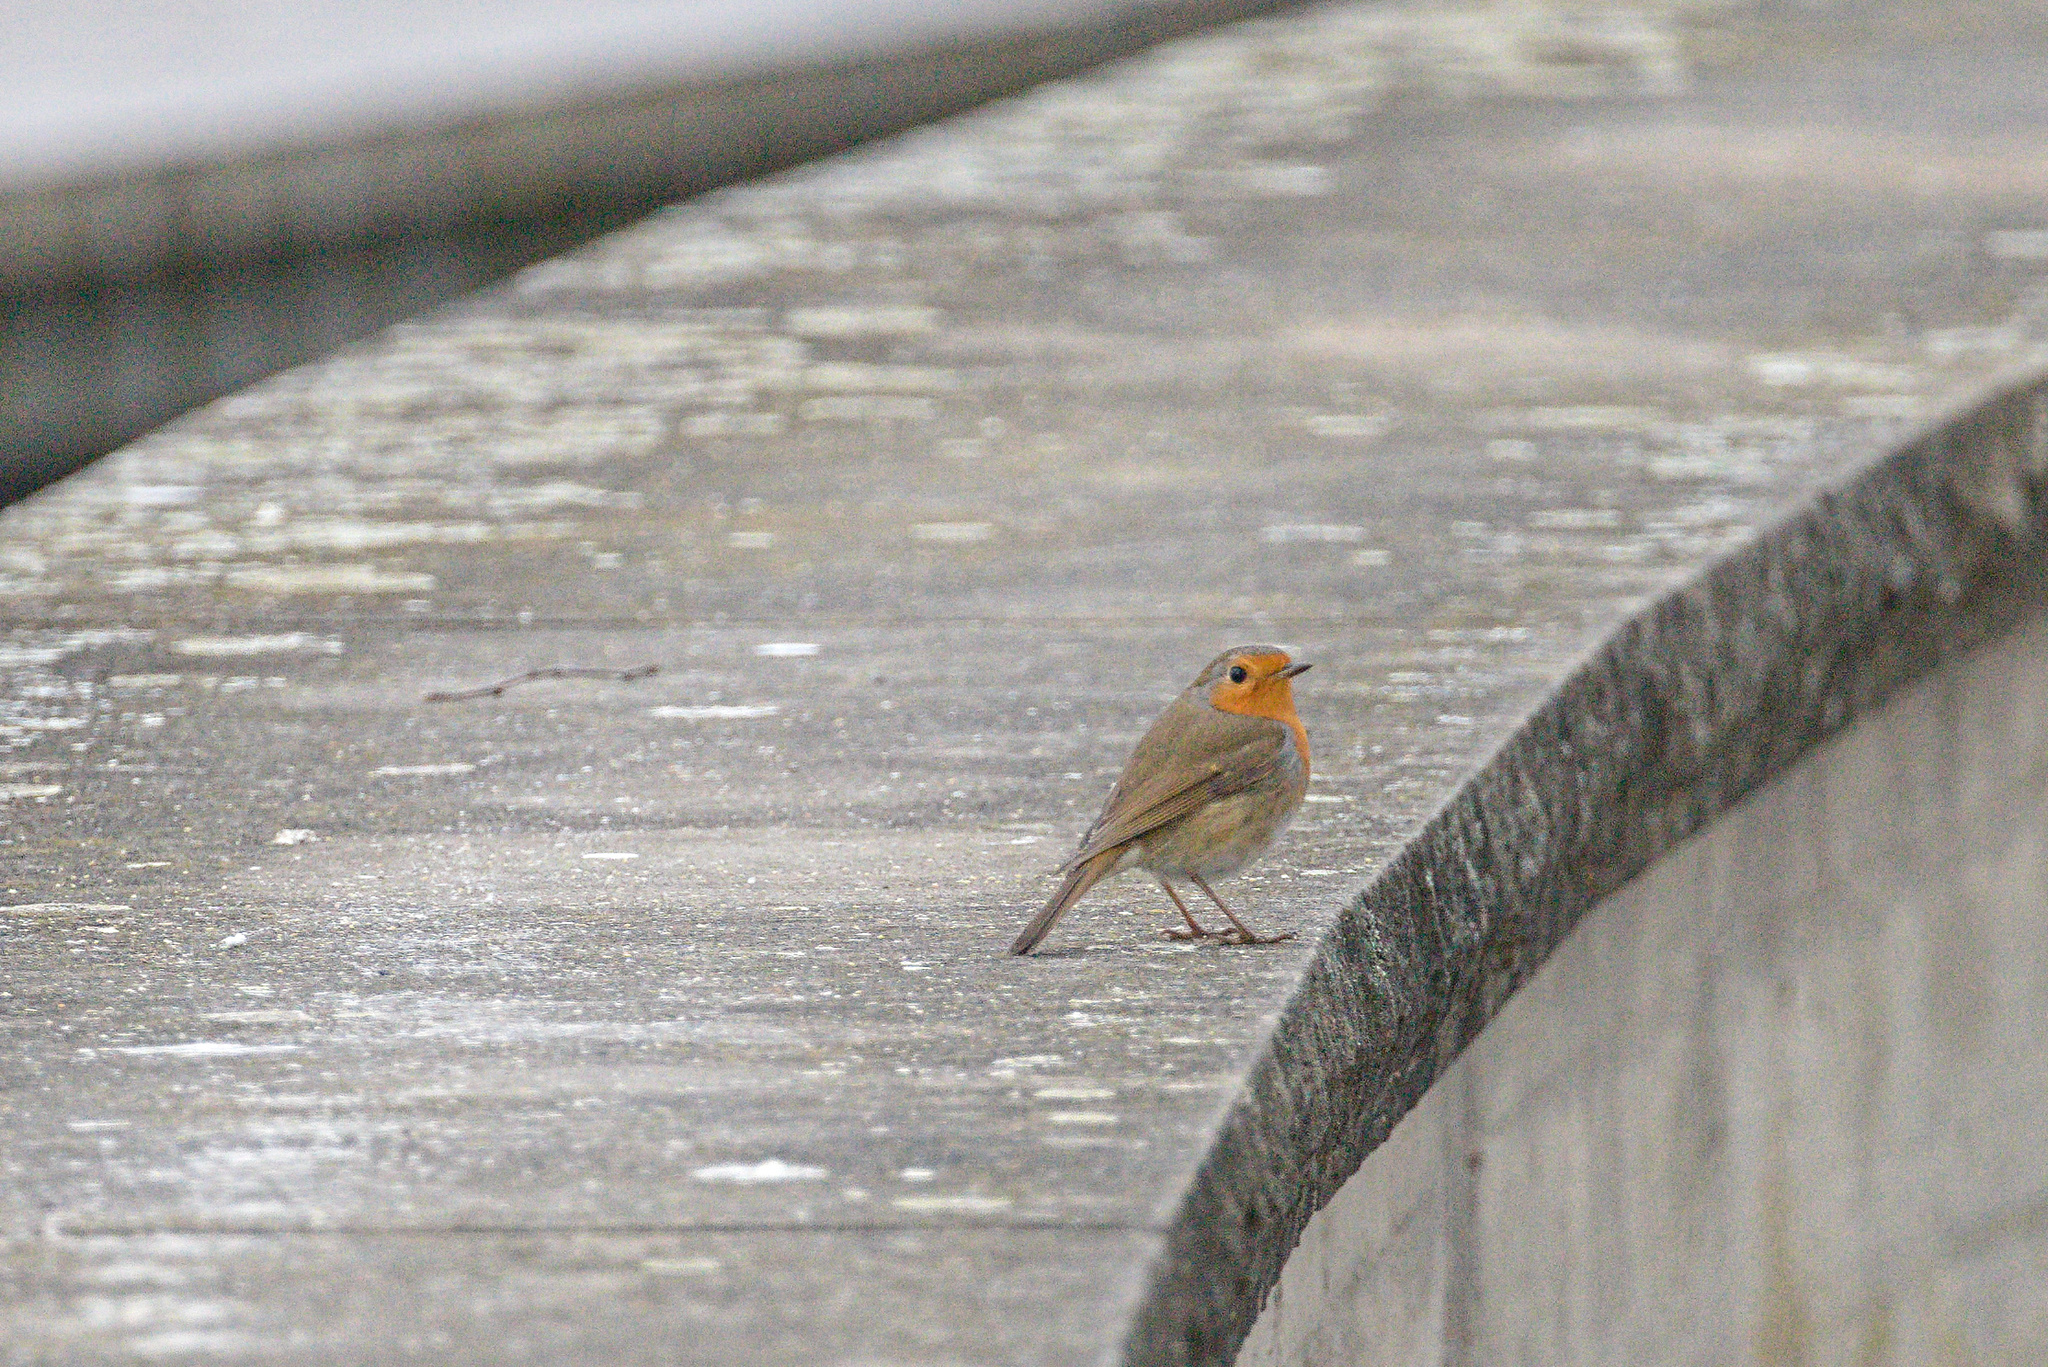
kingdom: Animalia
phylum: Chordata
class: Aves
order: Passeriformes
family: Muscicapidae
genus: Erithacus
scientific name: Erithacus rubecula
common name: European robin
